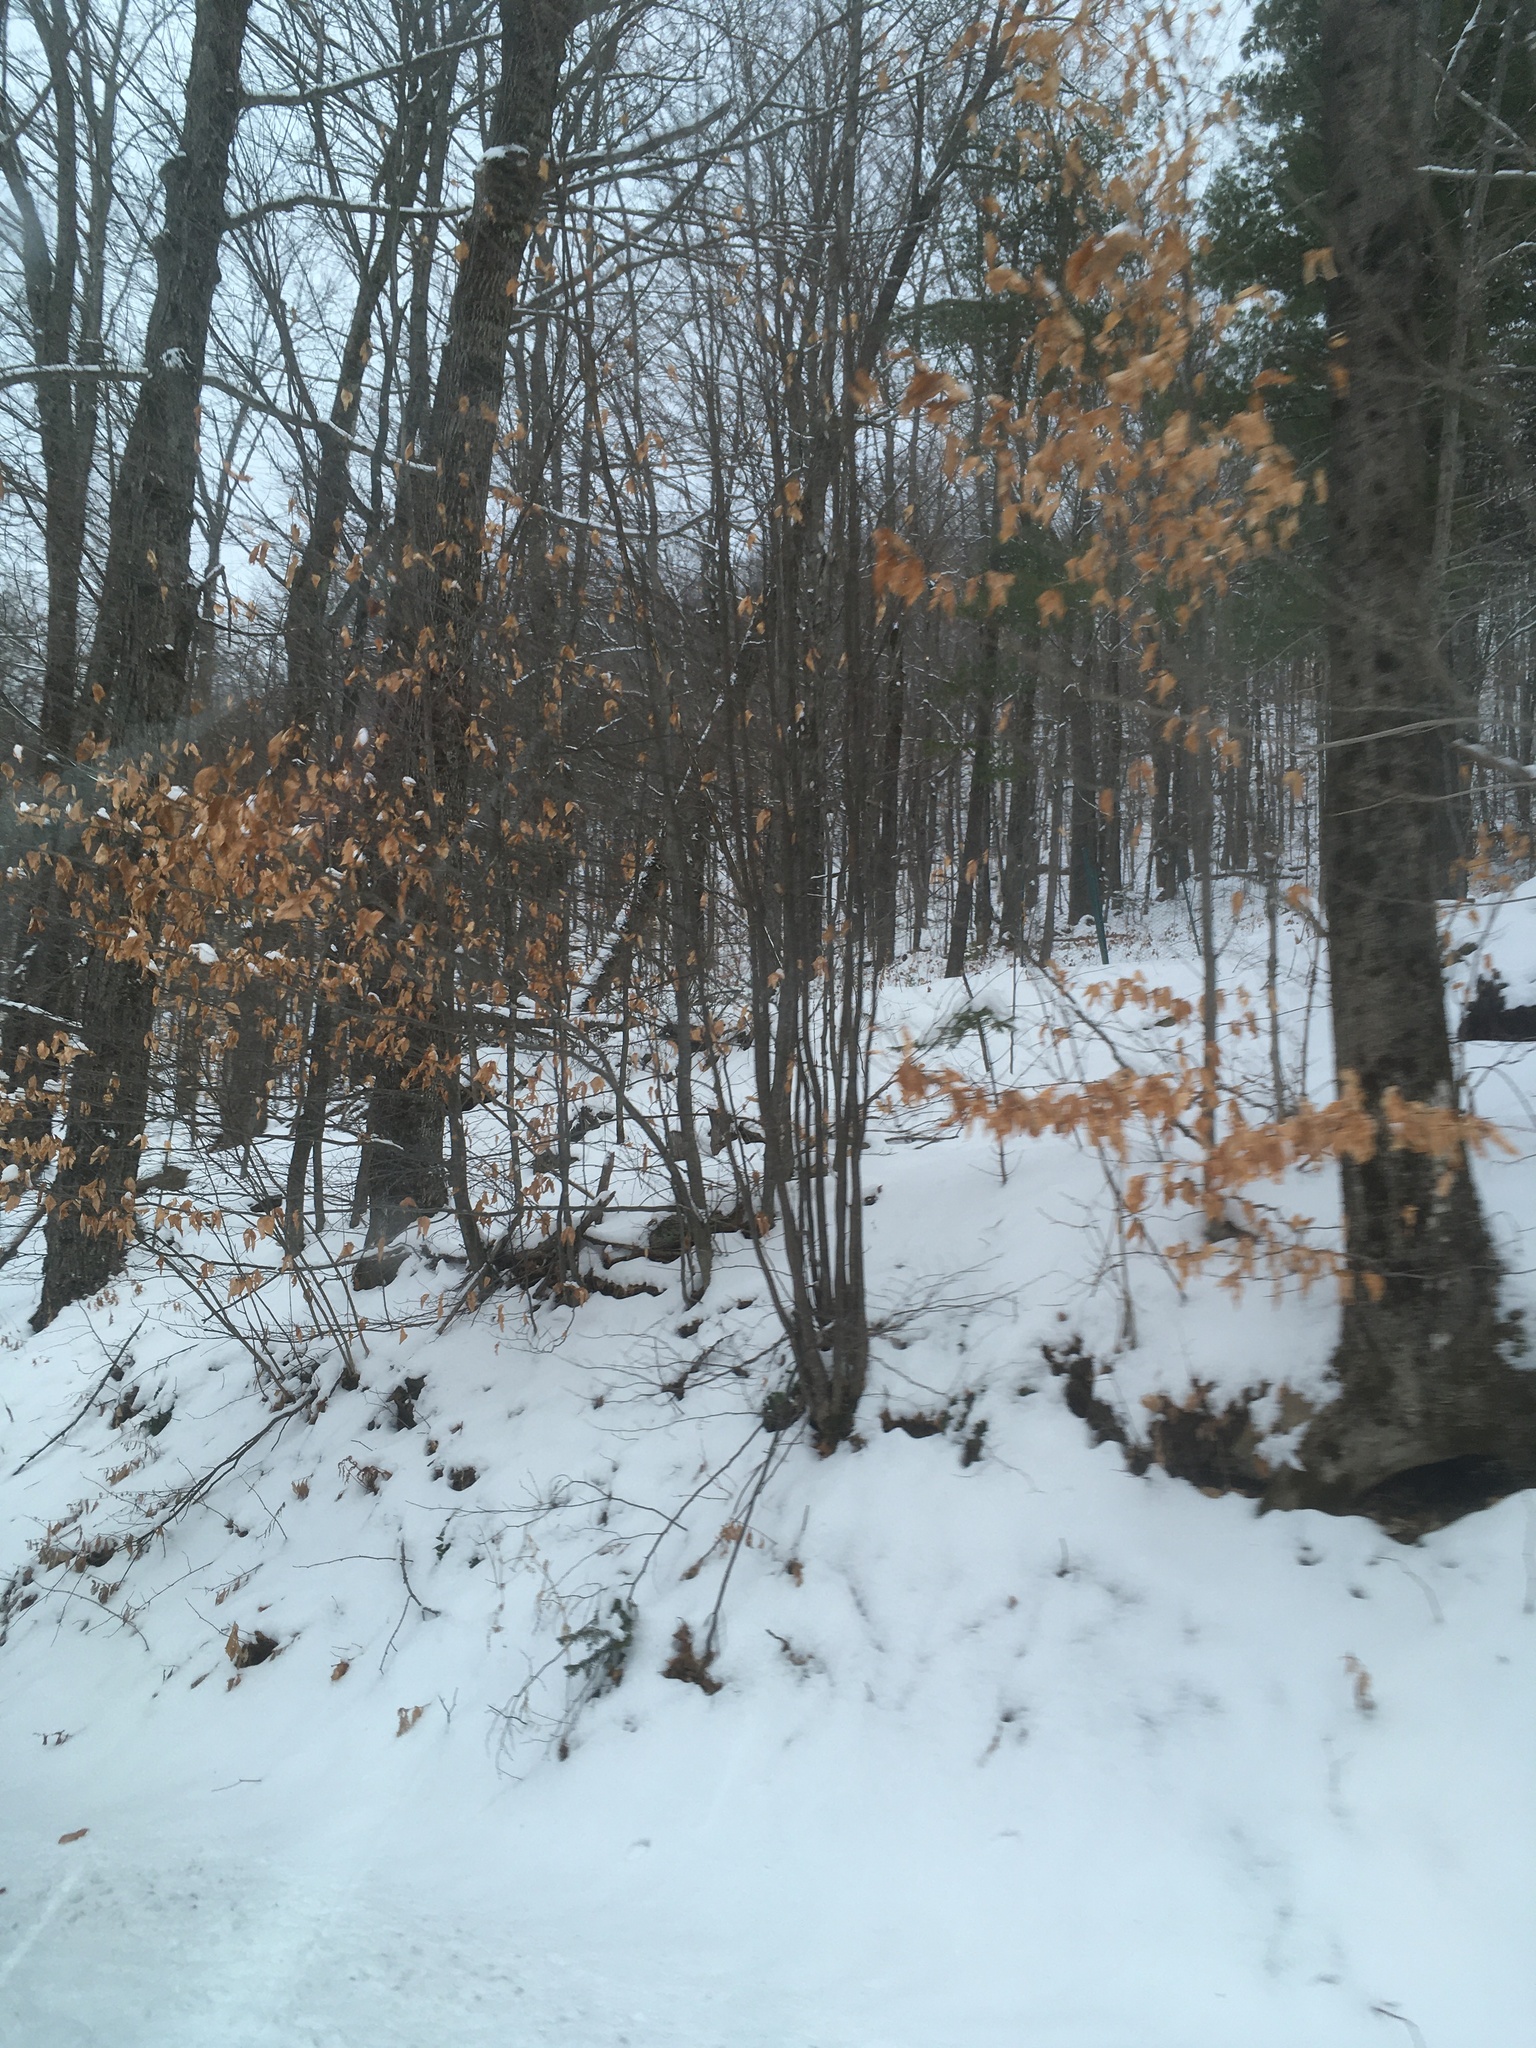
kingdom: Plantae
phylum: Tracheophyta
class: Magnoliopsida
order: Fagales
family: Fagaceae
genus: Fagus
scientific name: Fagus grandifolia
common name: American beech
